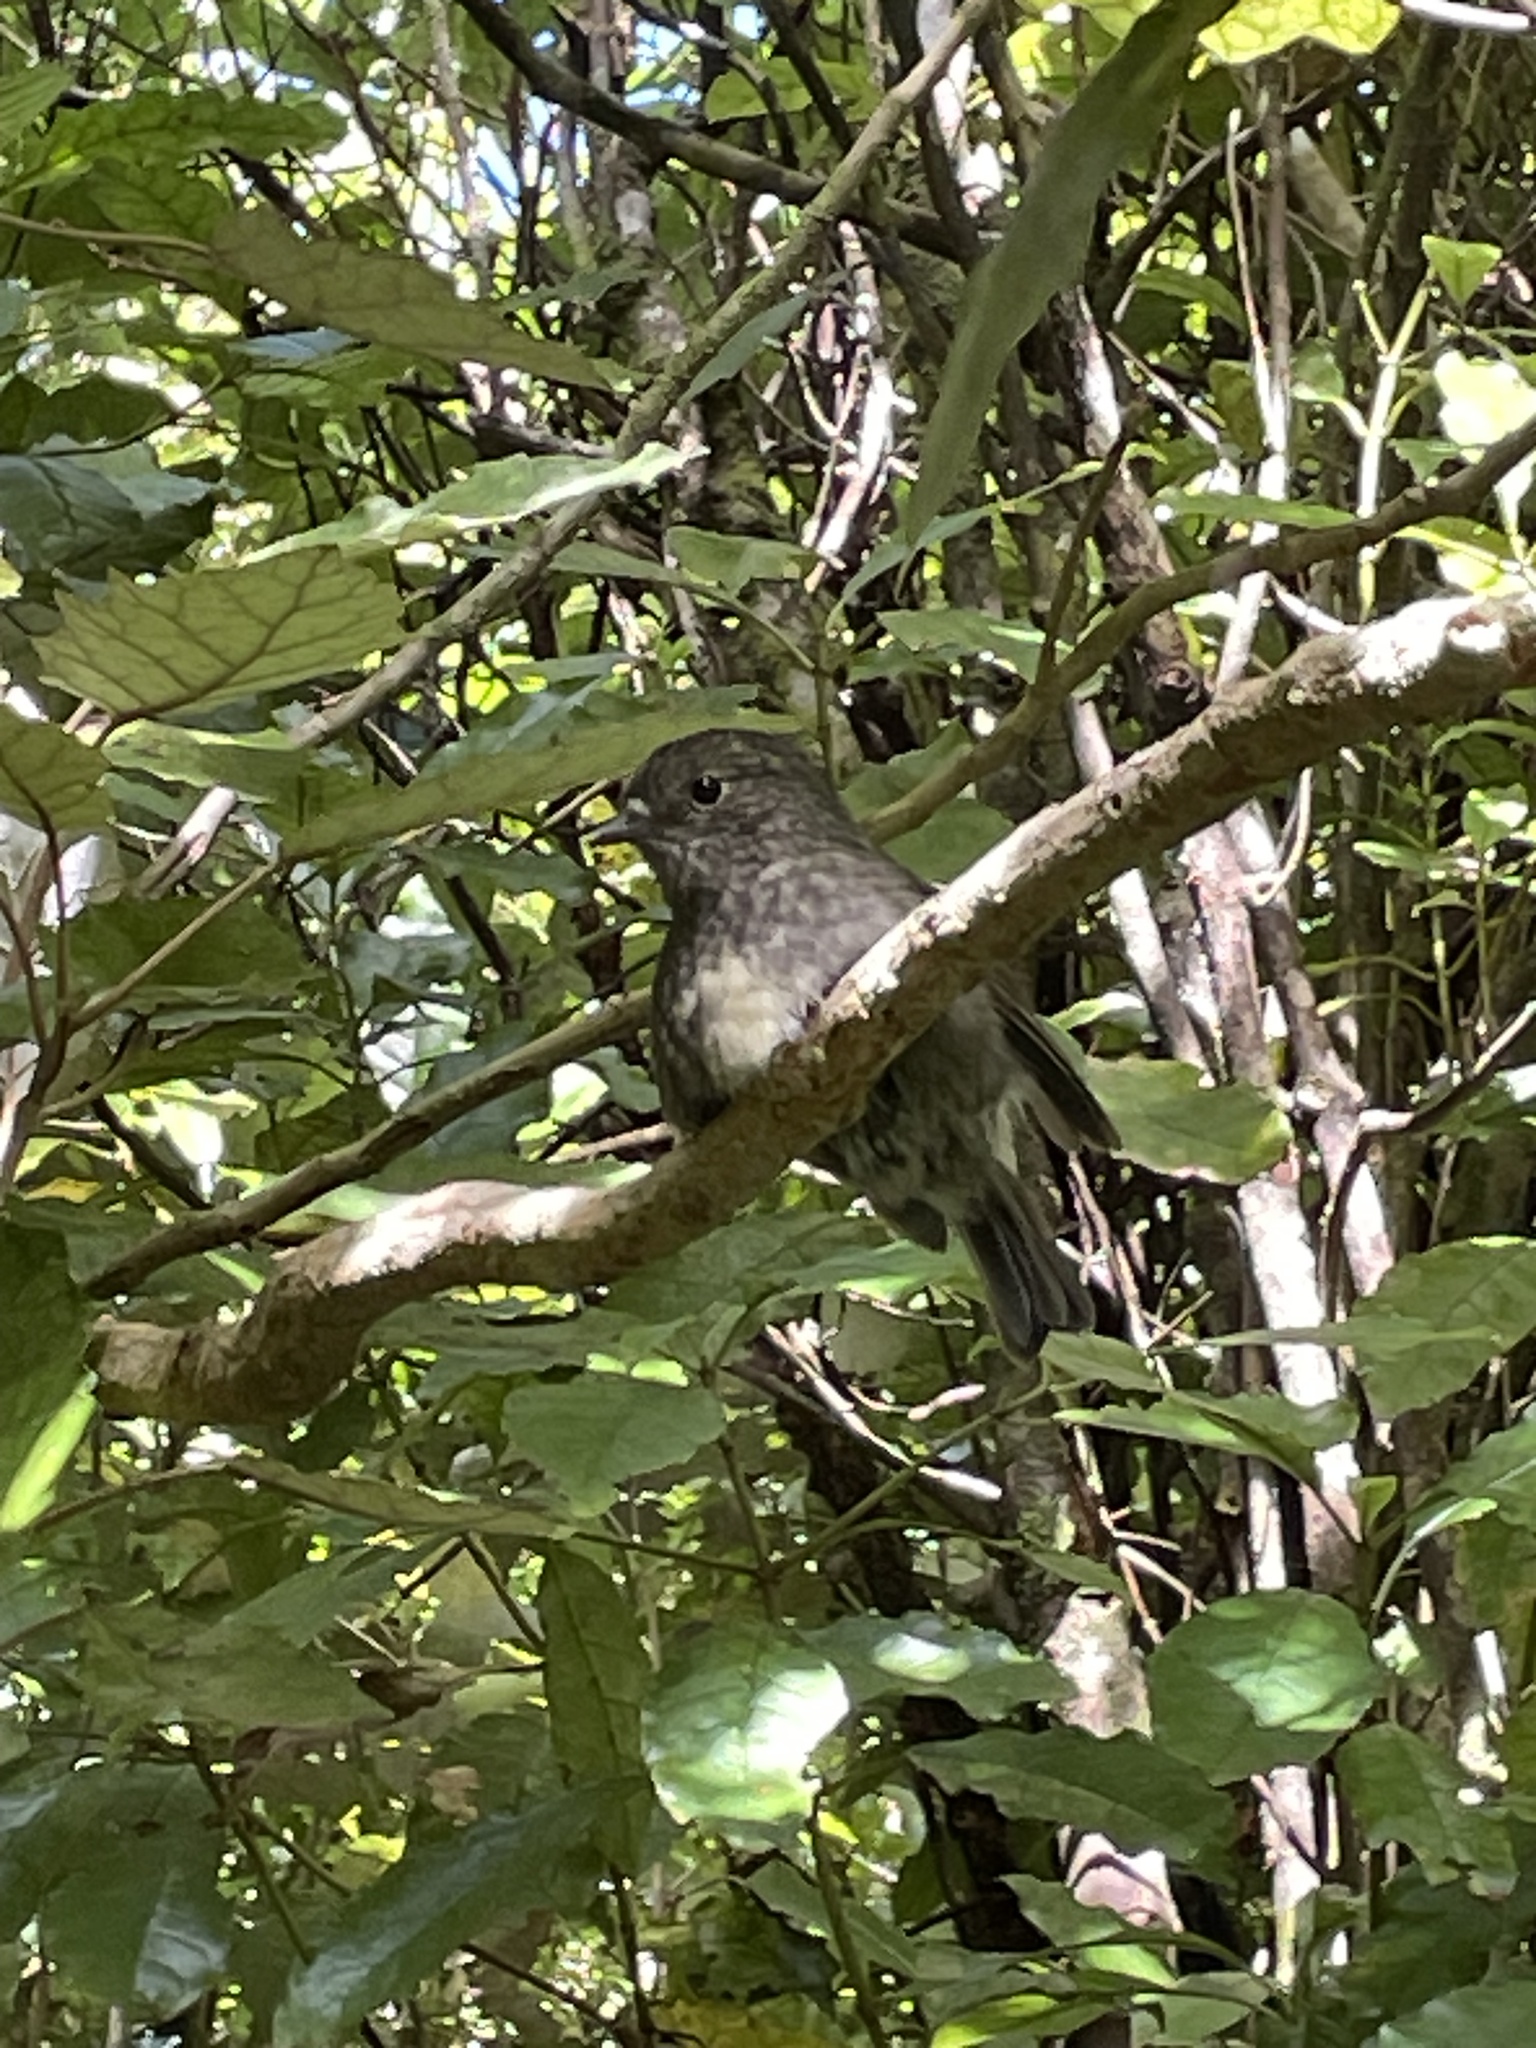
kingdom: Animalia
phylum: Chordata
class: Aves
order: Passeriformes
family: Petroicidae
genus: Petroica
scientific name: Petroica australis
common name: New zealand robin
